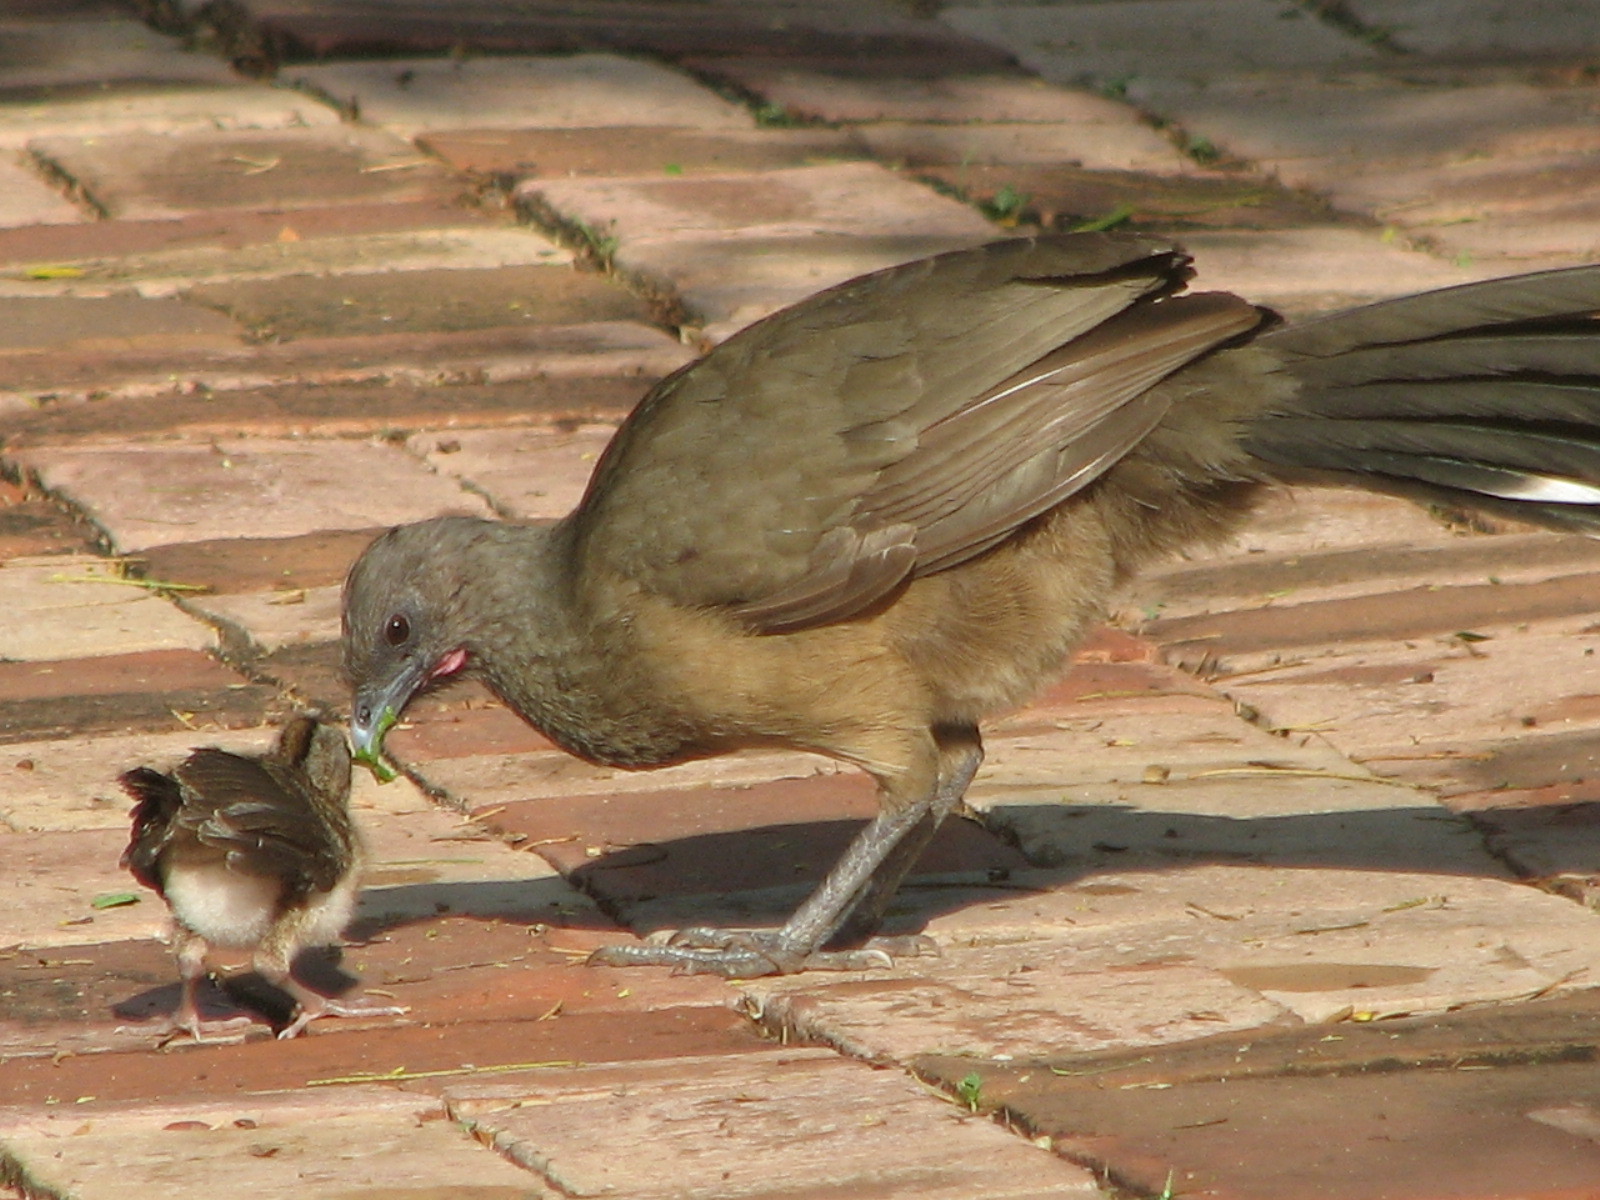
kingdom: Animalia
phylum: Chordata
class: Aves
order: Galliformes
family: Cracidae
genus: Ortalis
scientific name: Ortalis vetula
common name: Plain chachalaca
